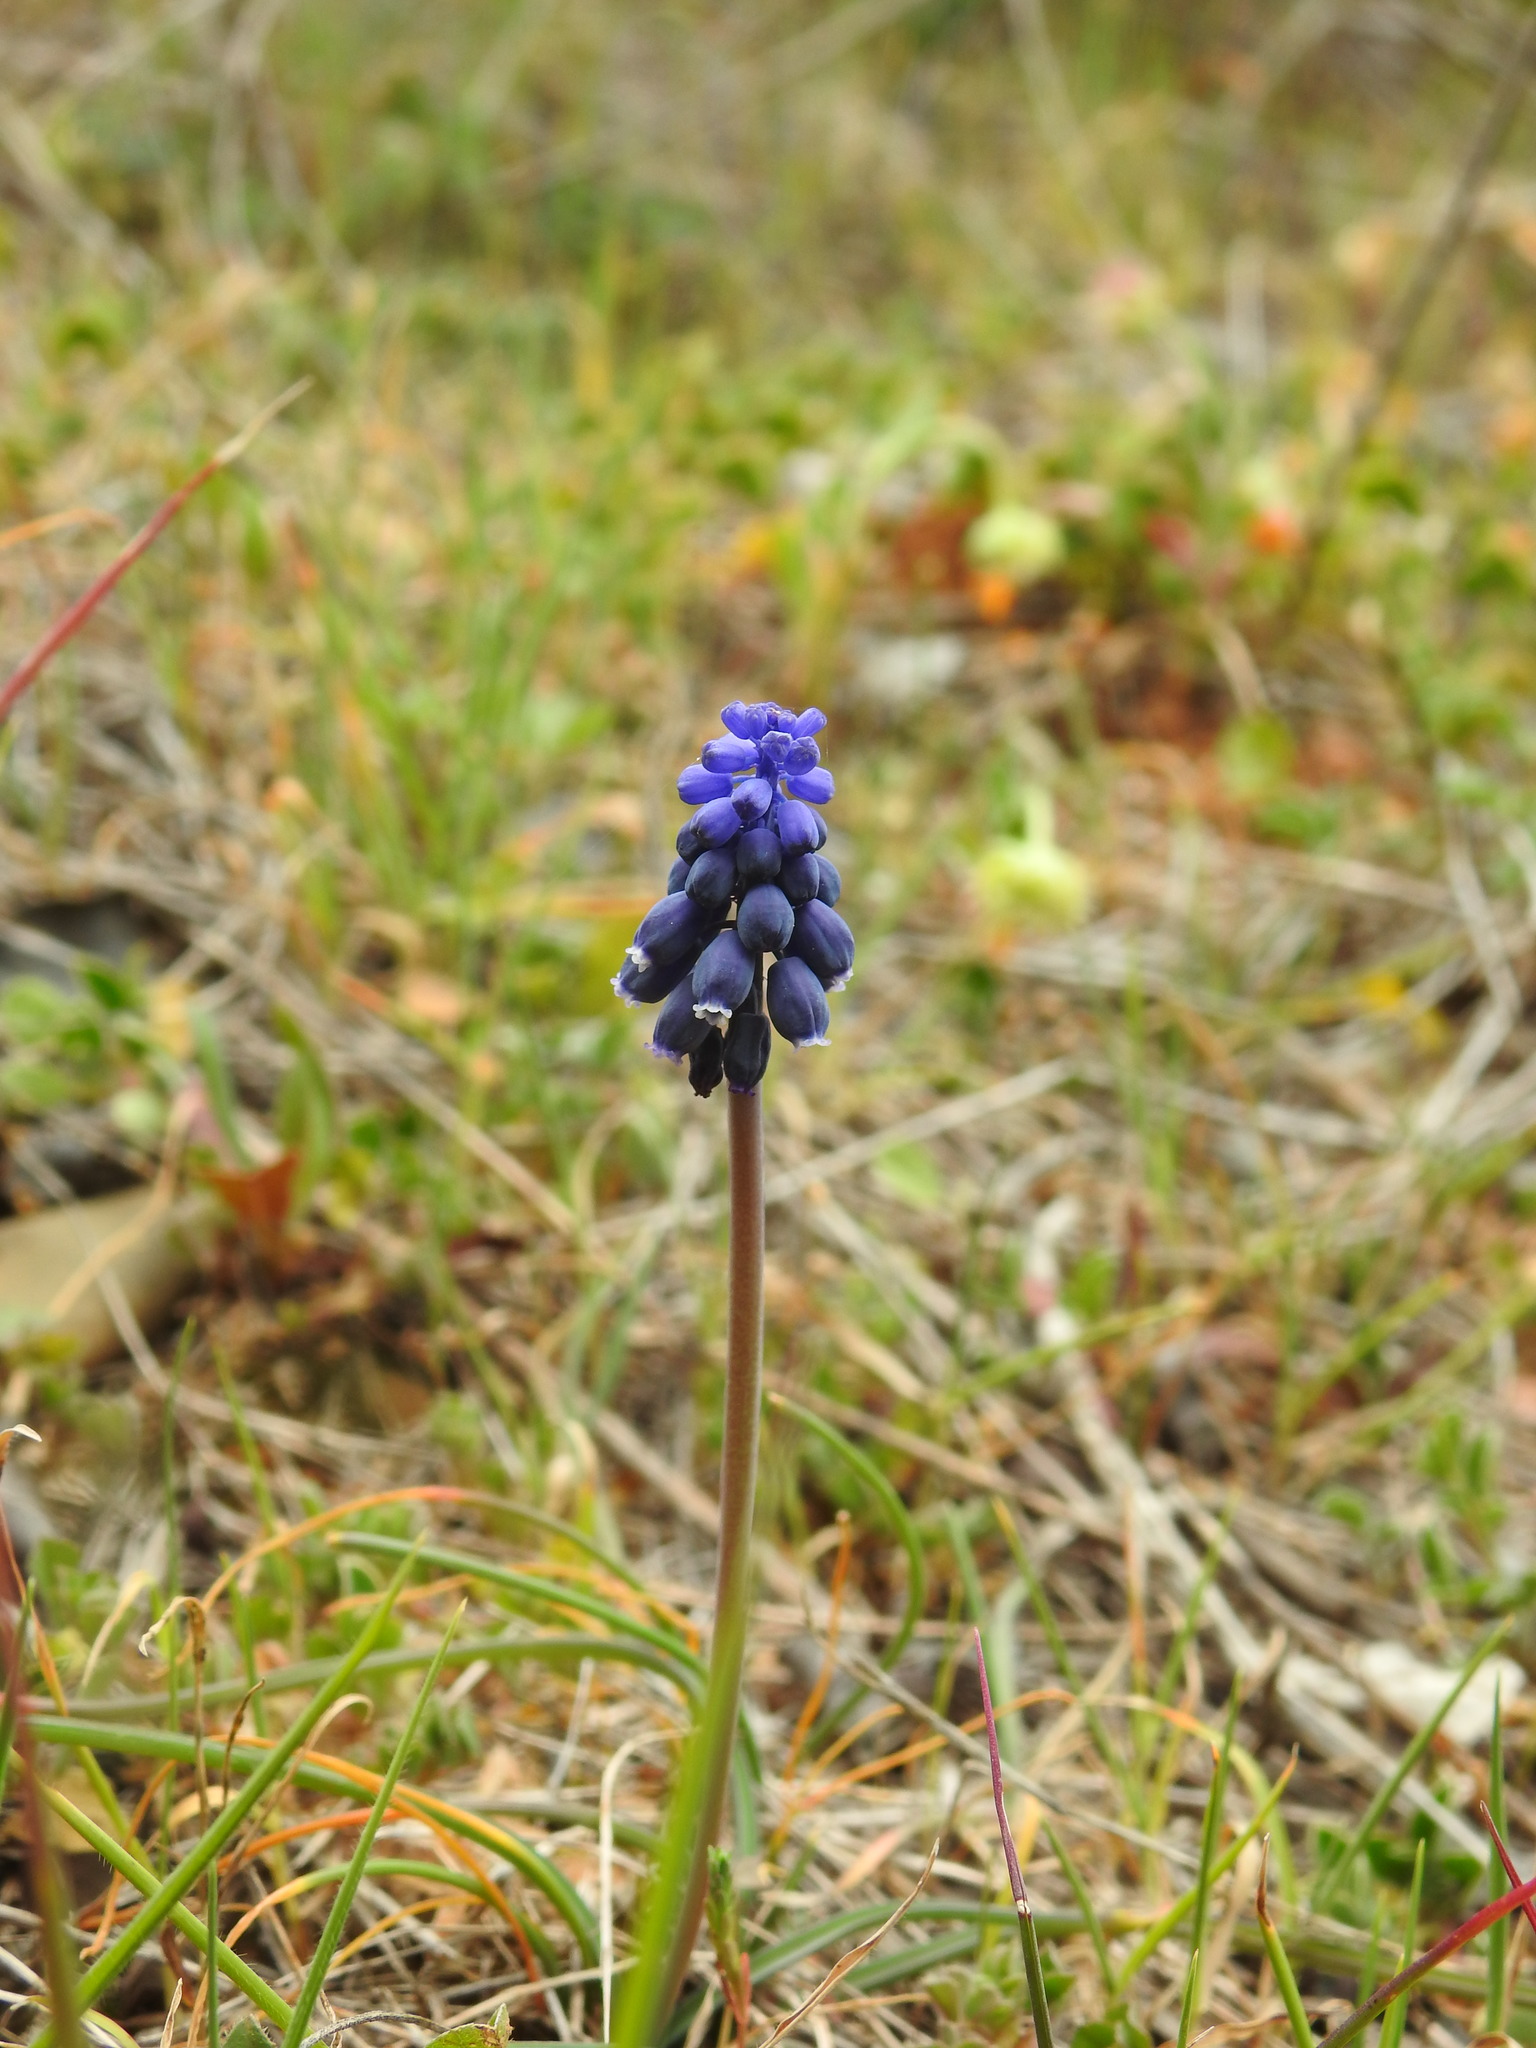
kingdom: Plantae
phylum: Tracheophyta
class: Liliopsida
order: Asparagales
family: Asparagaceae
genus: Muscari
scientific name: Muscari neglectum
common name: Grape-hyacinth
